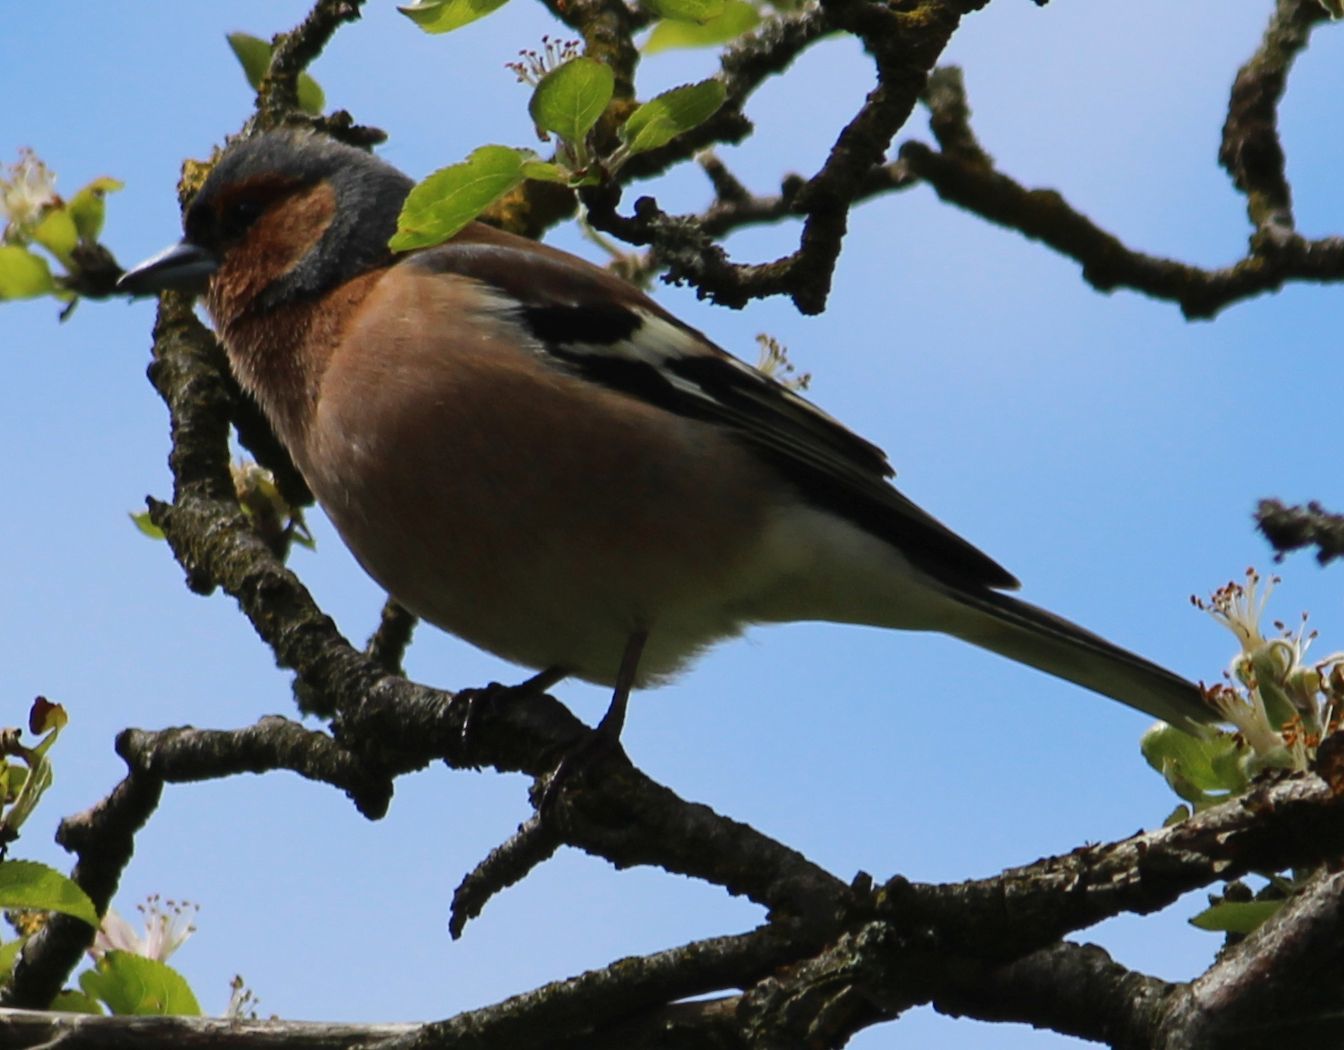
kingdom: Animalia
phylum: Chordata
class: Aves
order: Passeriformes
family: Fringillidae
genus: Fringilla
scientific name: Fringilla coelebs
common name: Common chaffinch
